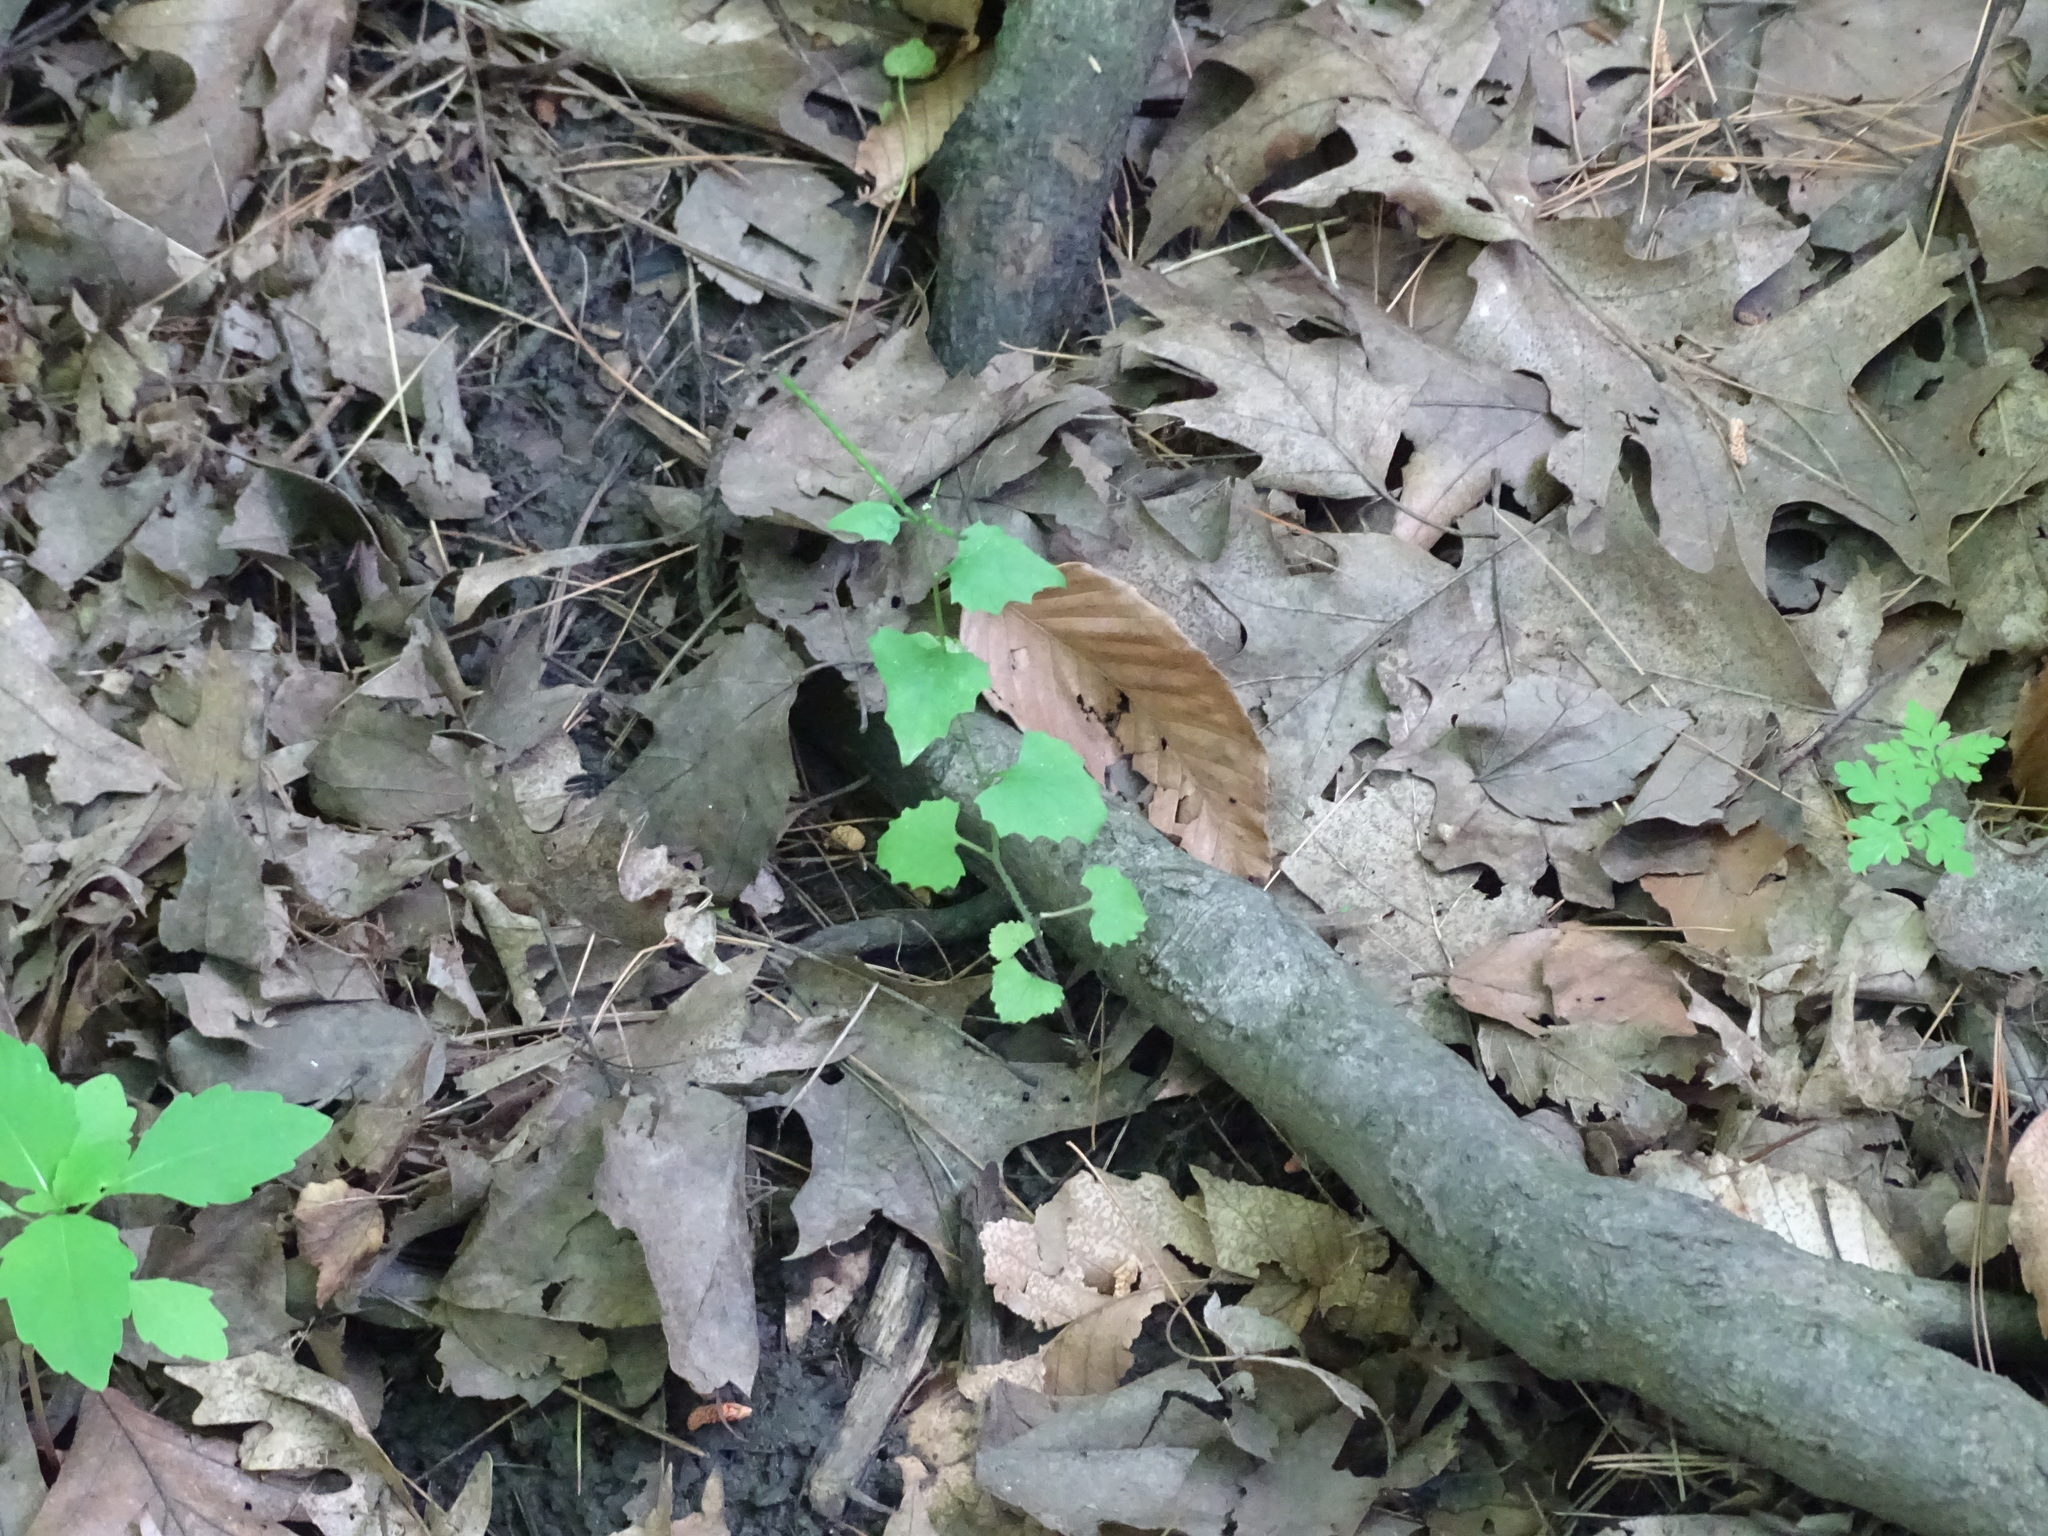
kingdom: Plantae
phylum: Tracheophyta
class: Magnoliopsida
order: Brassicales
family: Brassicaceae
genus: Alliaria
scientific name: Alliaria petiolata
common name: Garlic mustard
